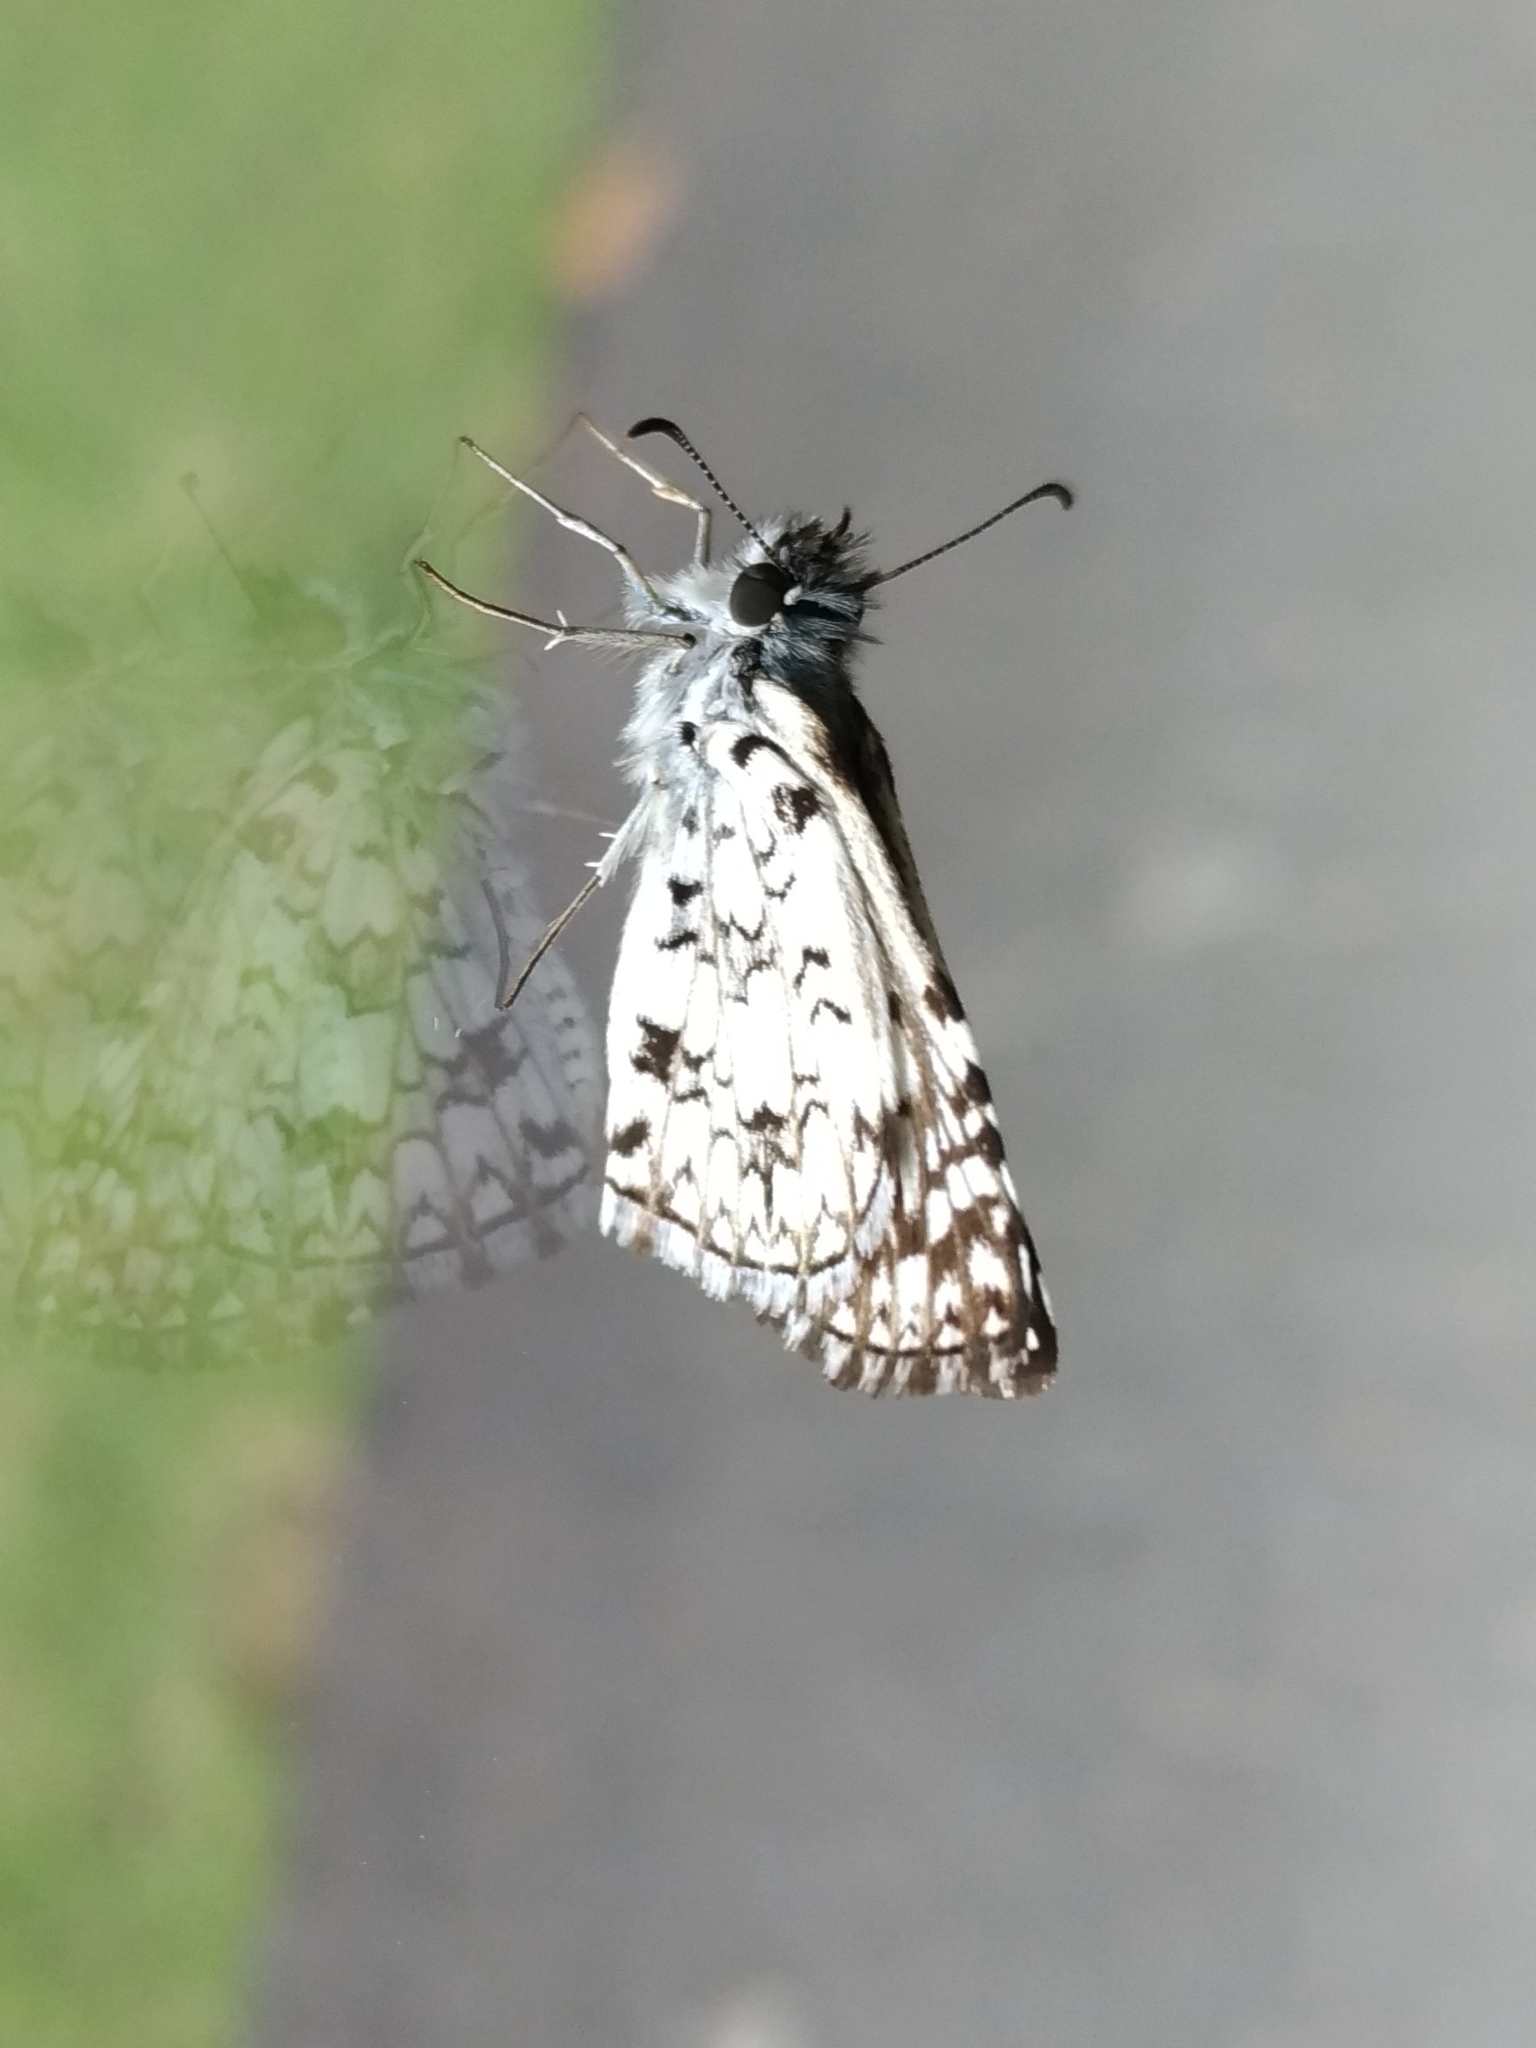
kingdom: Animalia
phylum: Arthropoda
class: Insecta
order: Lepidoptera
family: Hesperiidae
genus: Pyrgus
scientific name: Pyrgus oileus
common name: Tropical checkered-skipper
